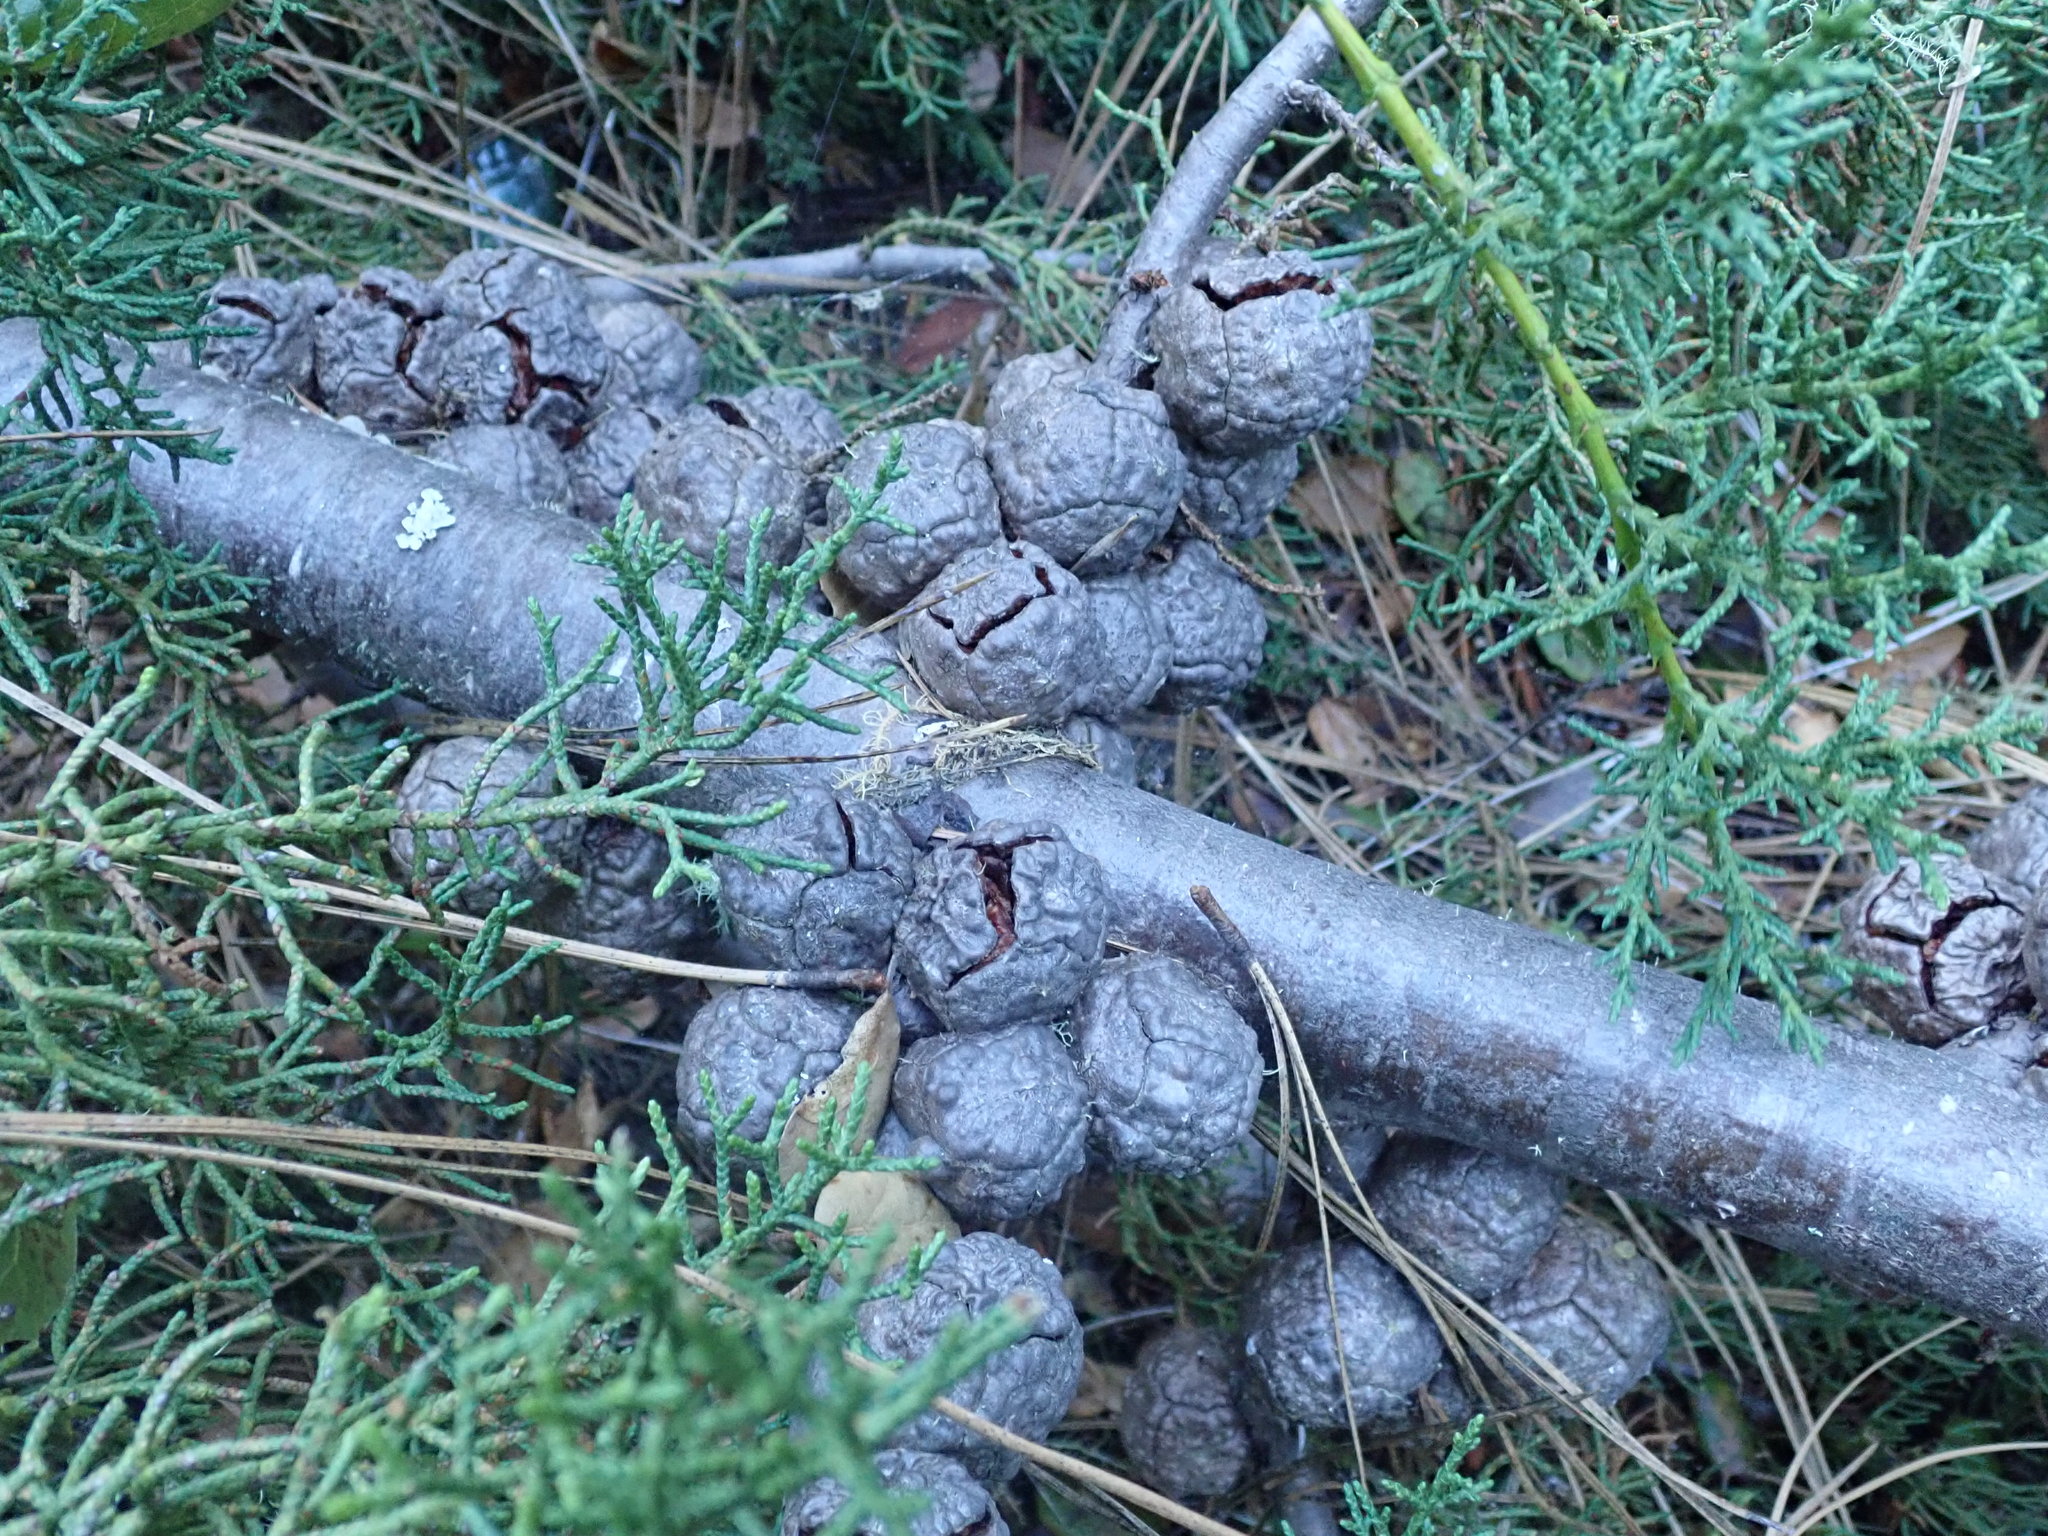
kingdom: Plantae
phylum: Tracheophyta
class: Pinopsida
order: Pinales
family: Cupressaceae
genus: Cupressus
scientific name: Cupressus goveniana
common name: Gowen cypress
